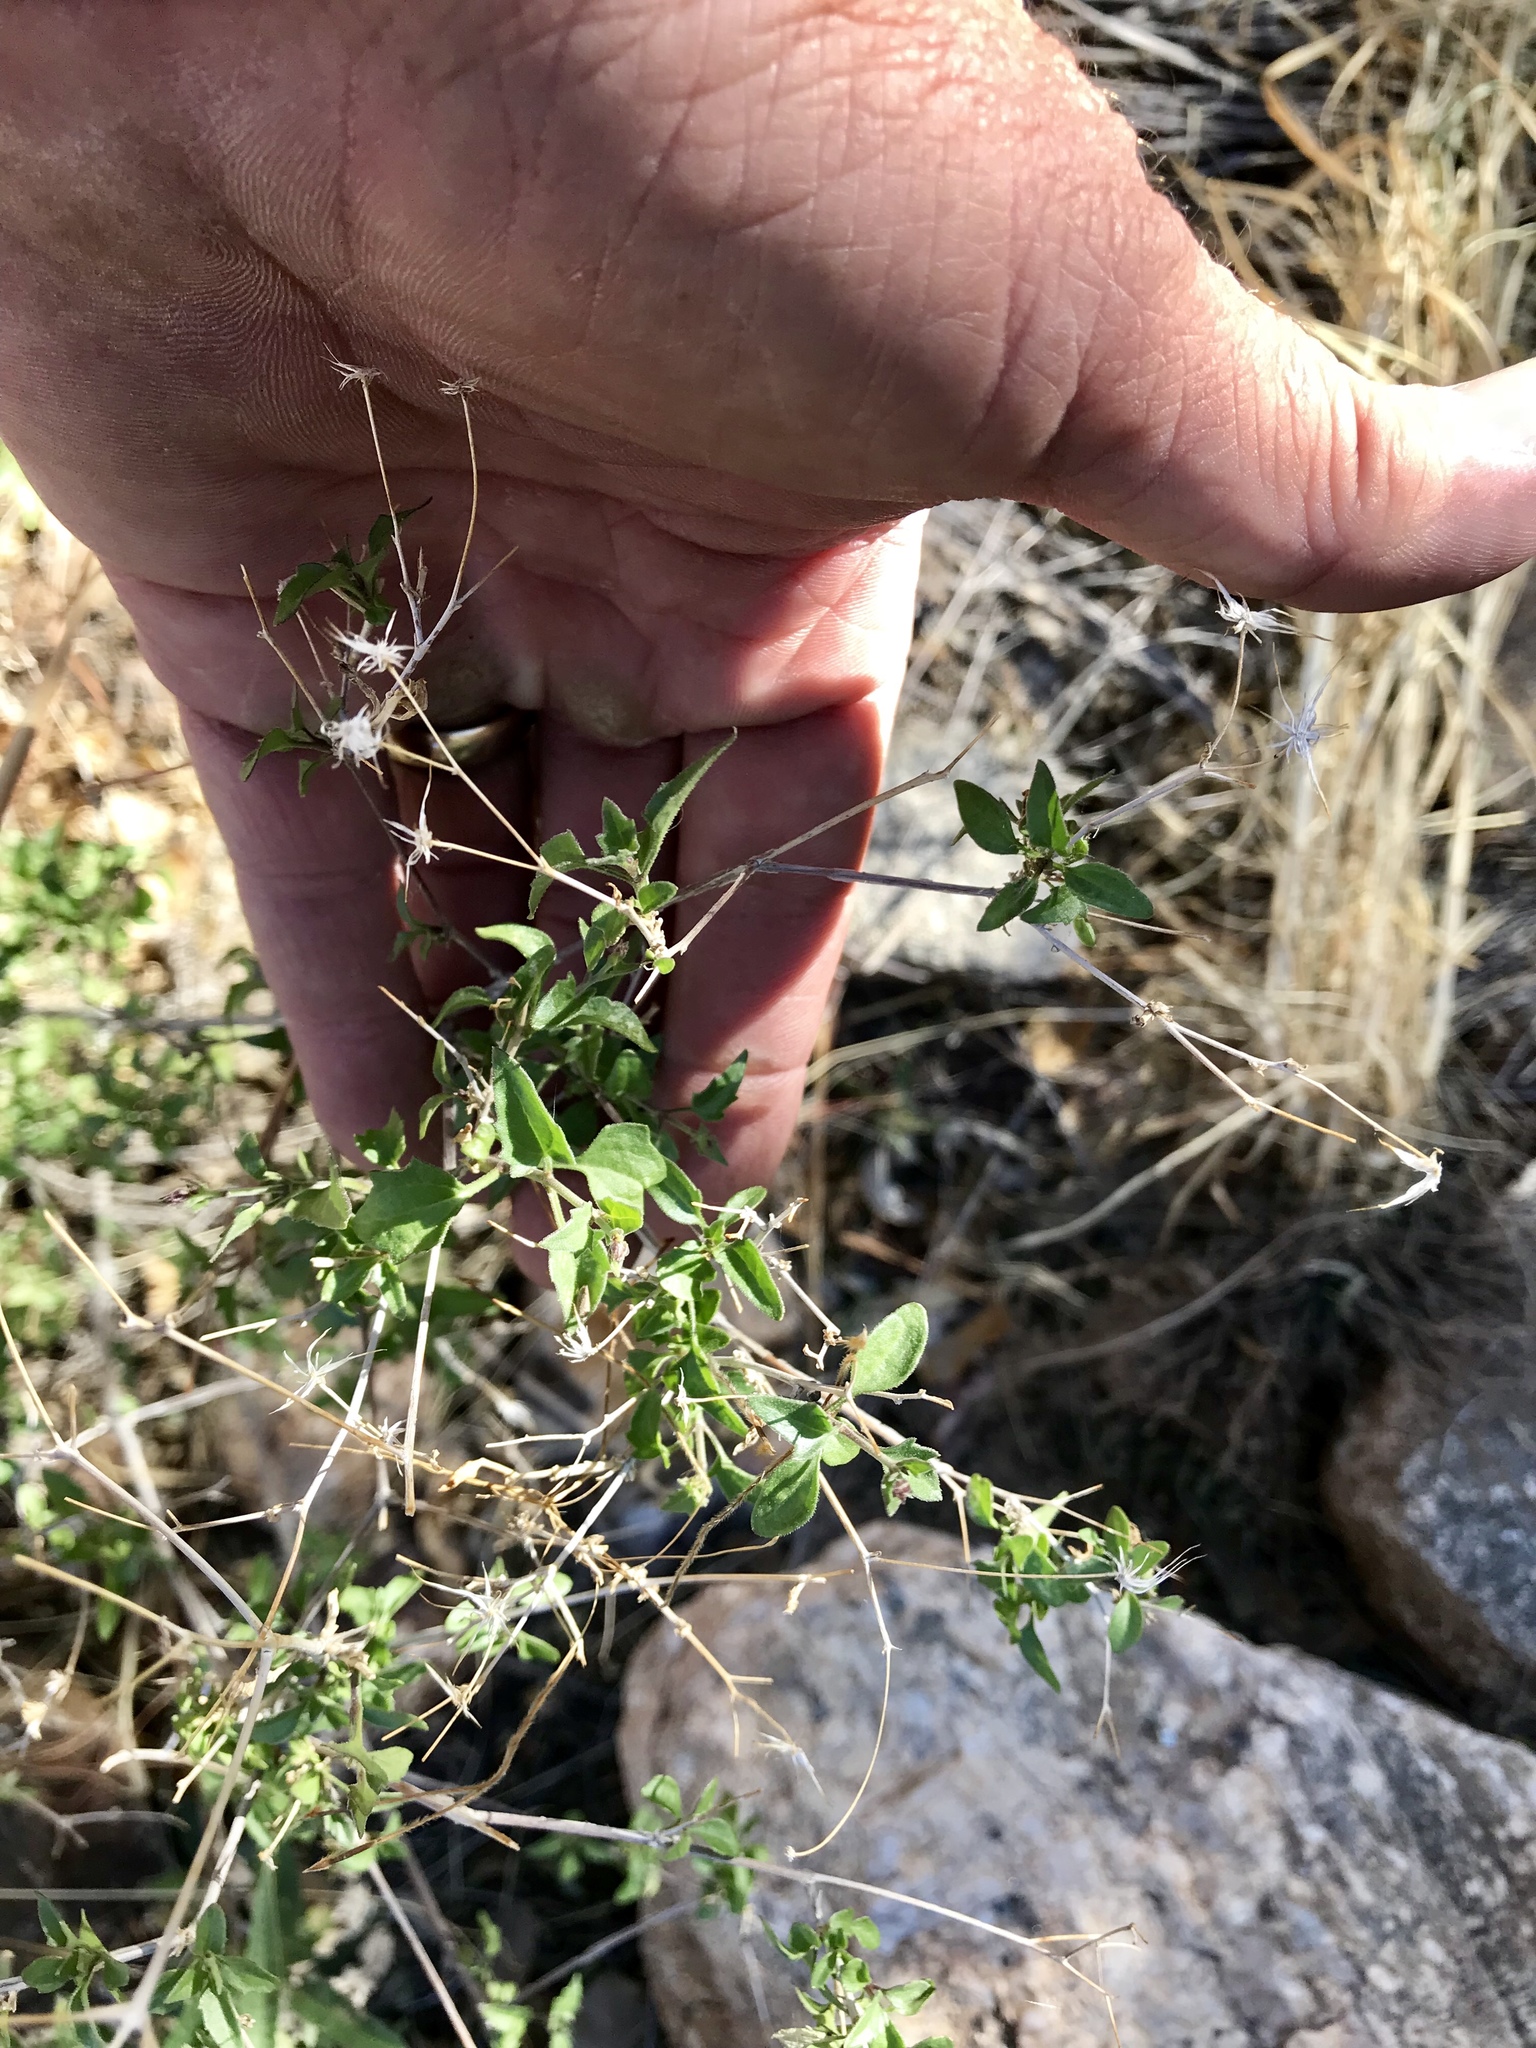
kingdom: Plantae
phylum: Tracheophyta
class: Magnoliopsida
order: Asterales
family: Asteraceae
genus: Trixis
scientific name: Trixis californica
